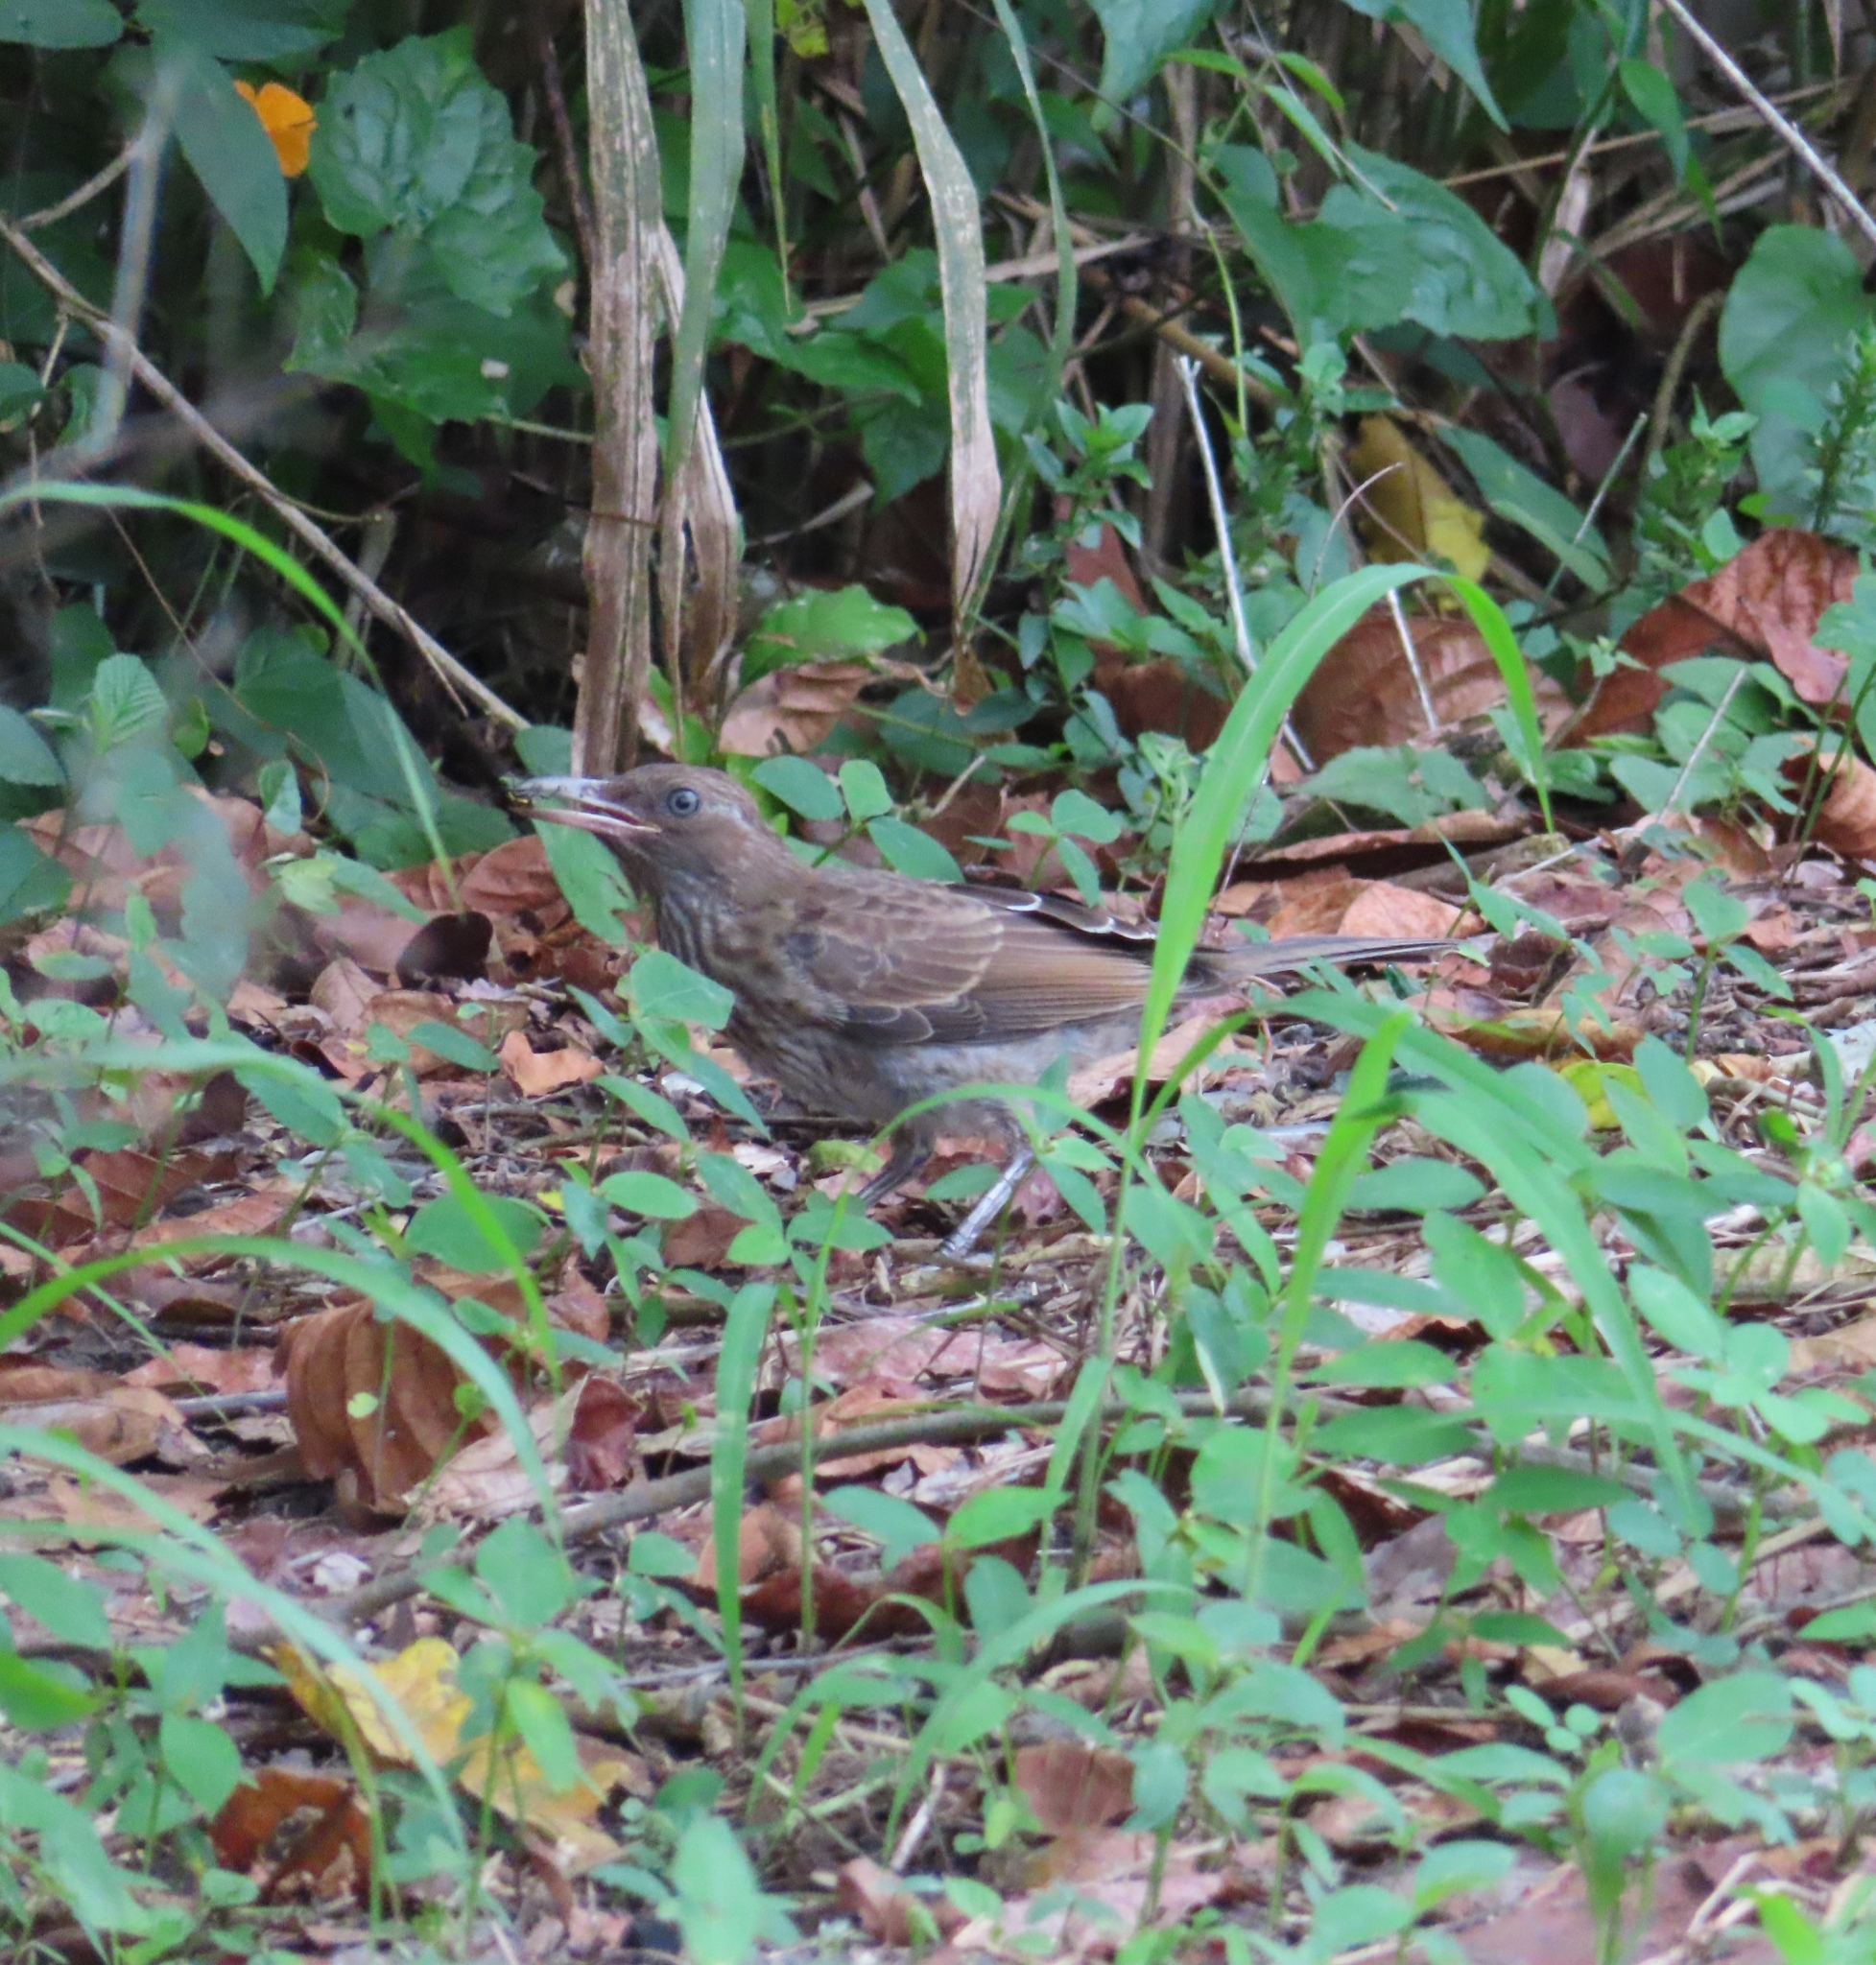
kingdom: Animalia
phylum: Chordata
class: Aves
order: Passeriformes
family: Mimidae
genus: Margarops
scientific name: Margarops fuscatus
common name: Pearly-eyed thrasher
